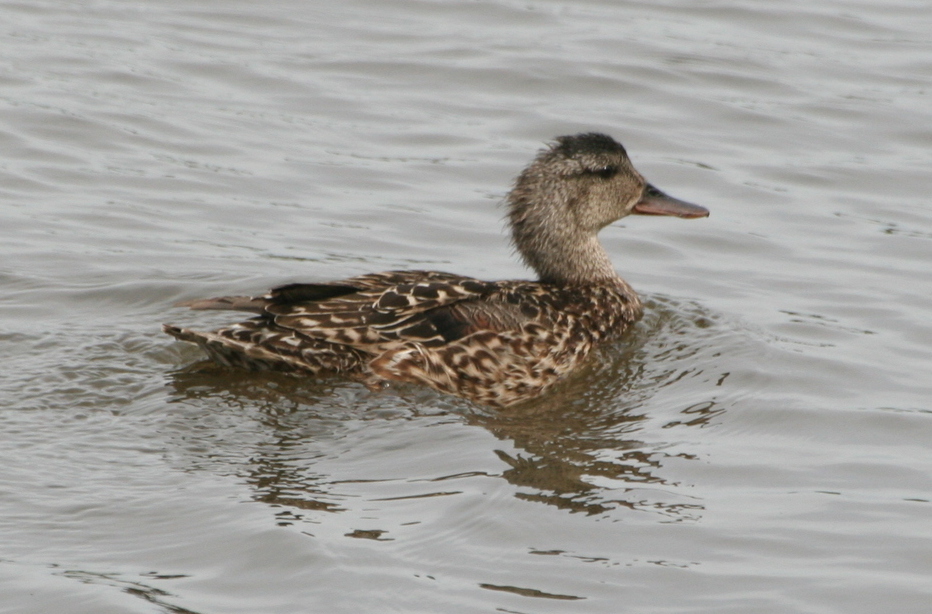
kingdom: Animalia
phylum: Chordata
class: Aves
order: Anseriformes
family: Anatidae
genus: Mareca
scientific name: Mareca strepera
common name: Gadwall
